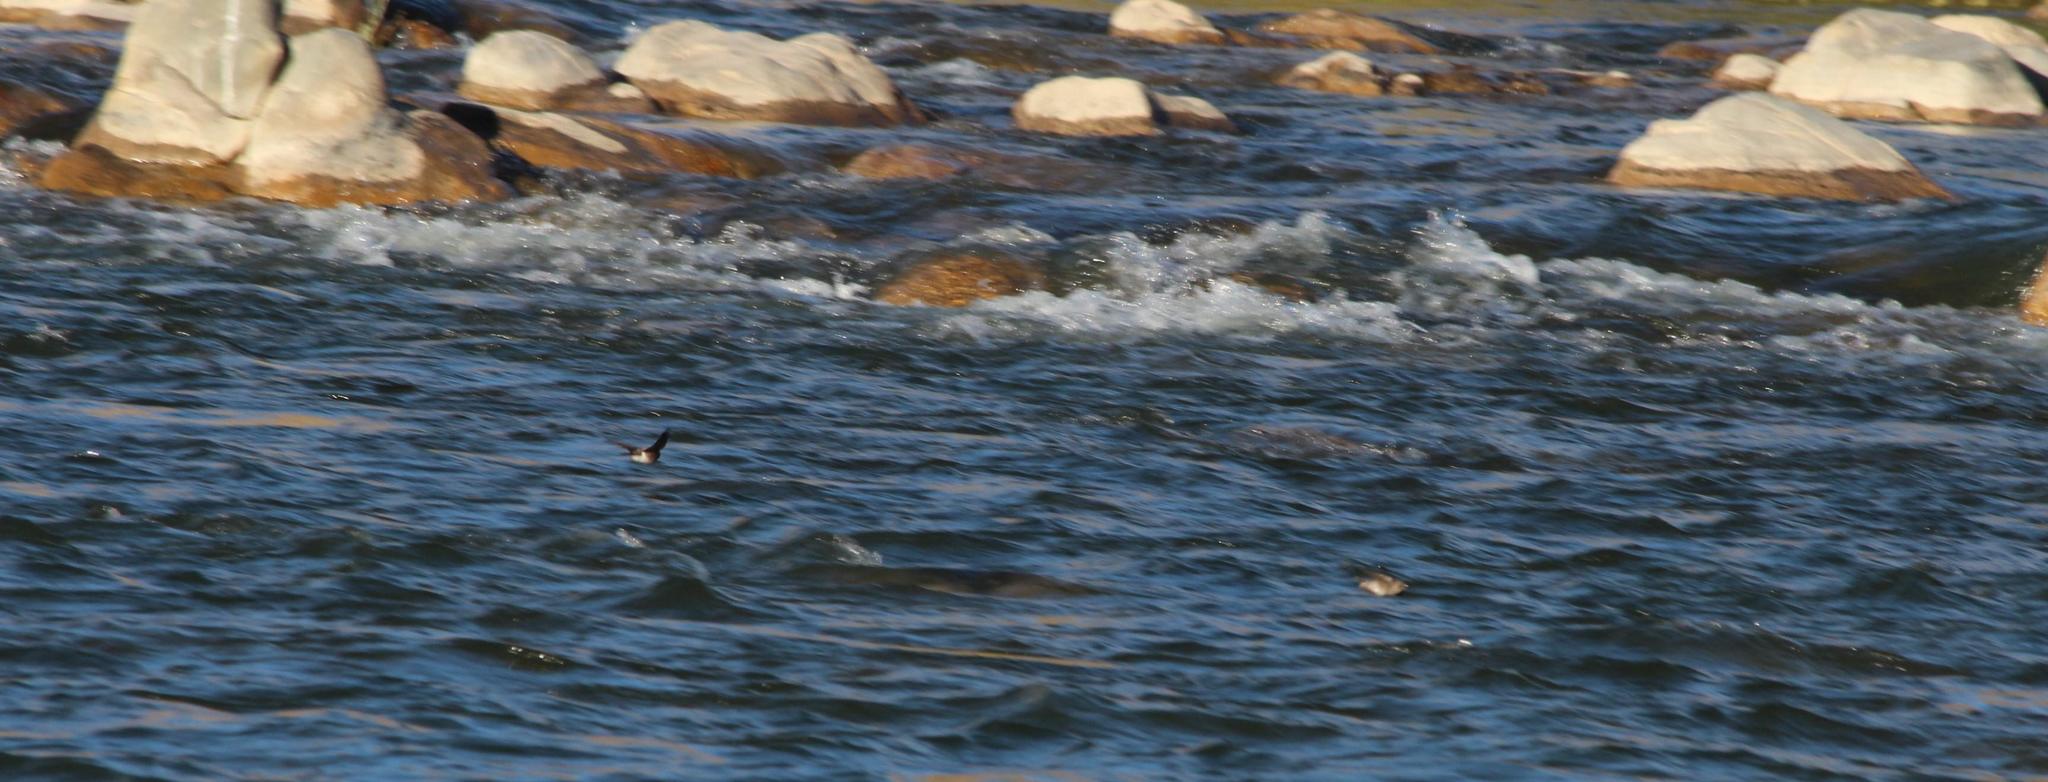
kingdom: Animalia
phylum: Chordata
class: Aves
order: Passeriformes
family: Hirundinidae
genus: Riparia
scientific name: Riparia paludicola
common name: Brown-throated martin
